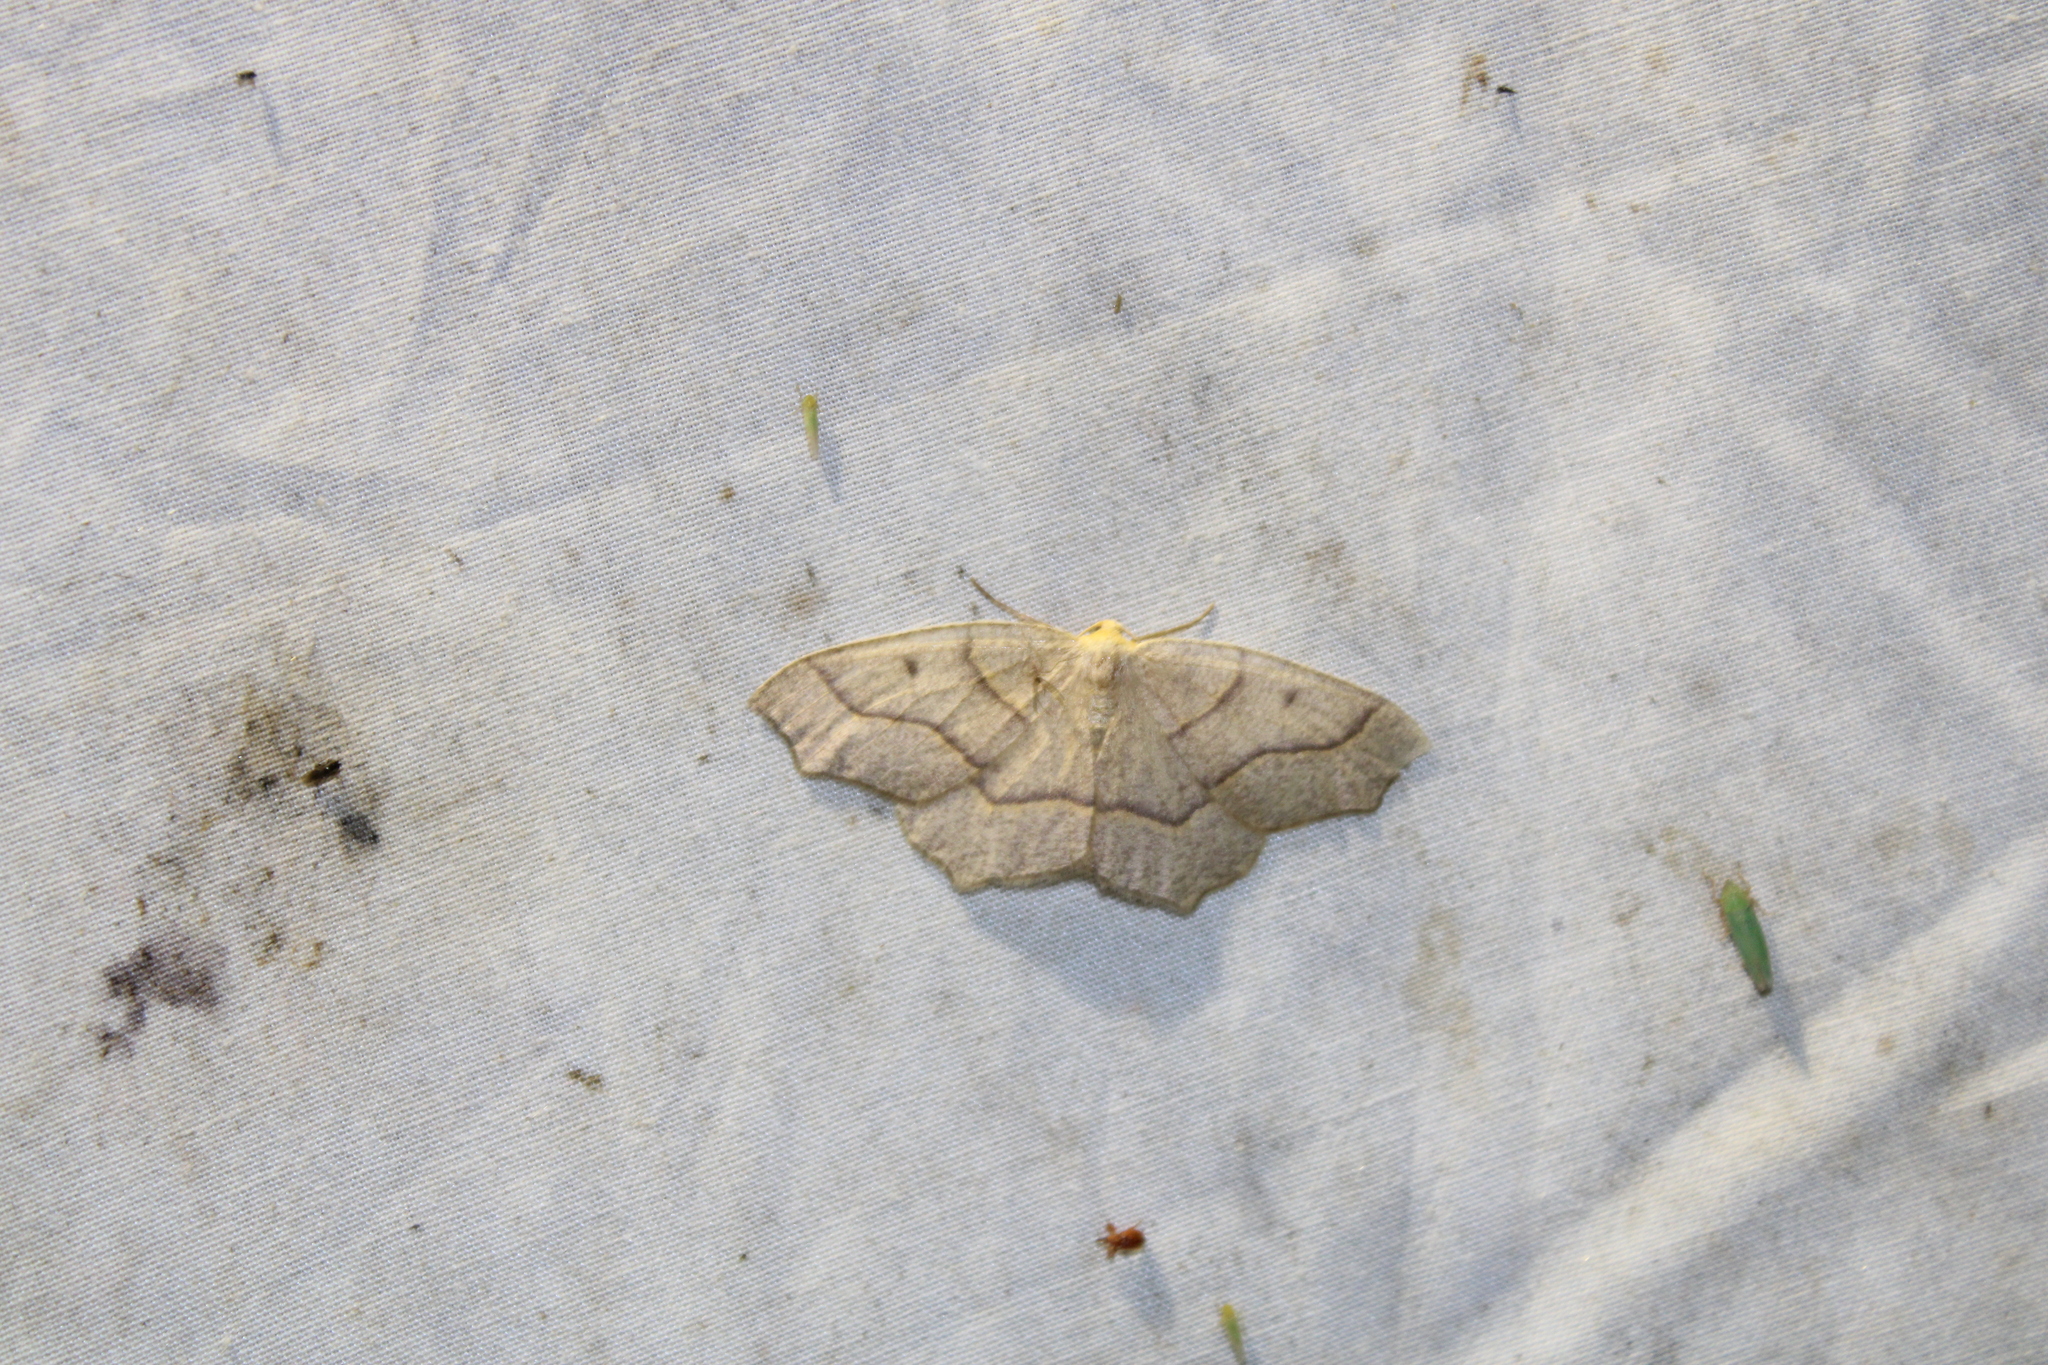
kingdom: Animalia
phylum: Arthropoda
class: Insecta
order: Lepidoptera
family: Geometridae
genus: Lambdina
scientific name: Lambdina fiscellaria
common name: Hemlock looper
